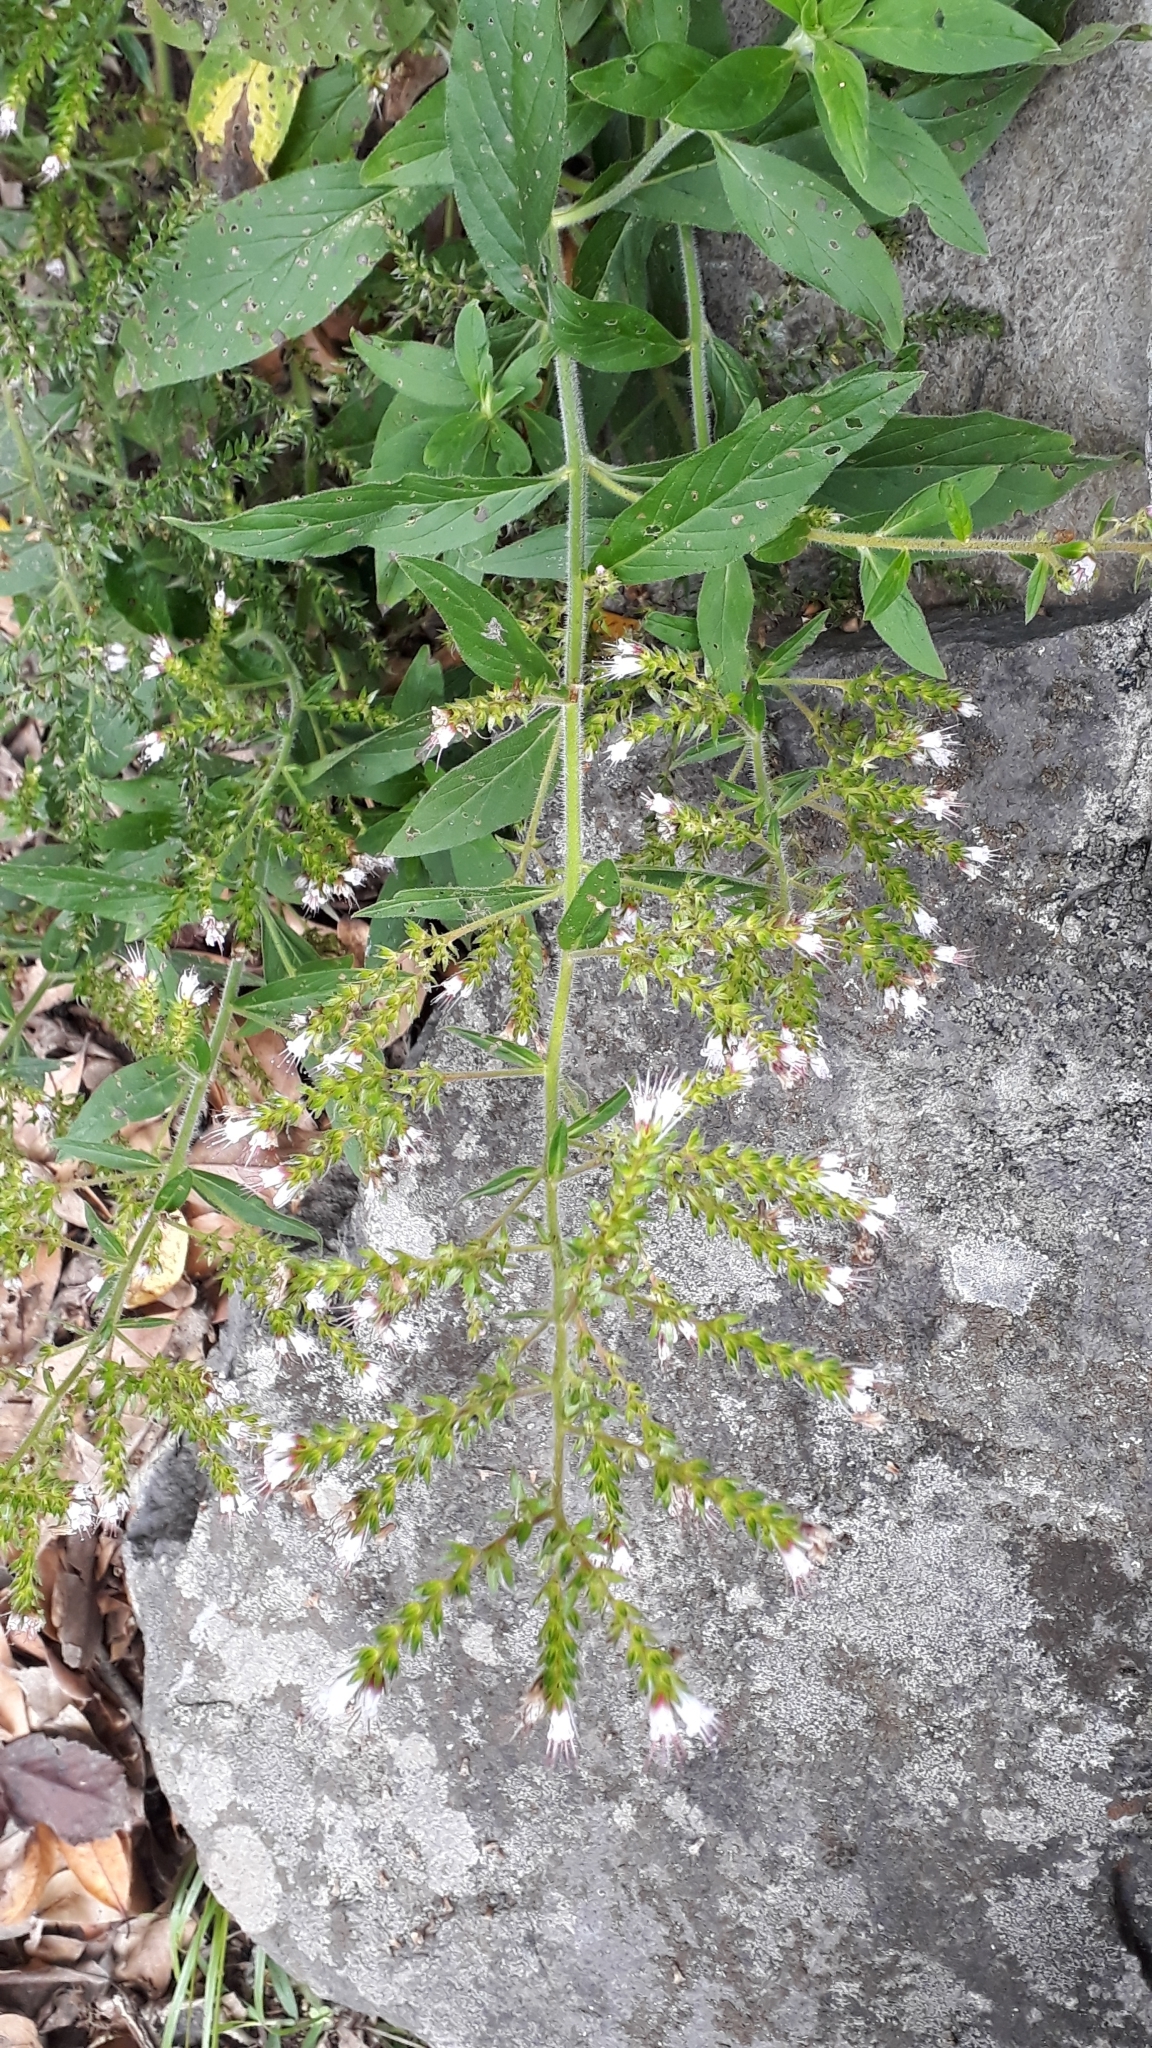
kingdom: Plantae
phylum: Tracheophyta
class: Magnoliopsida
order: Boraginales
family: Boraginaceae
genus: Echium
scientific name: Echium strictum
